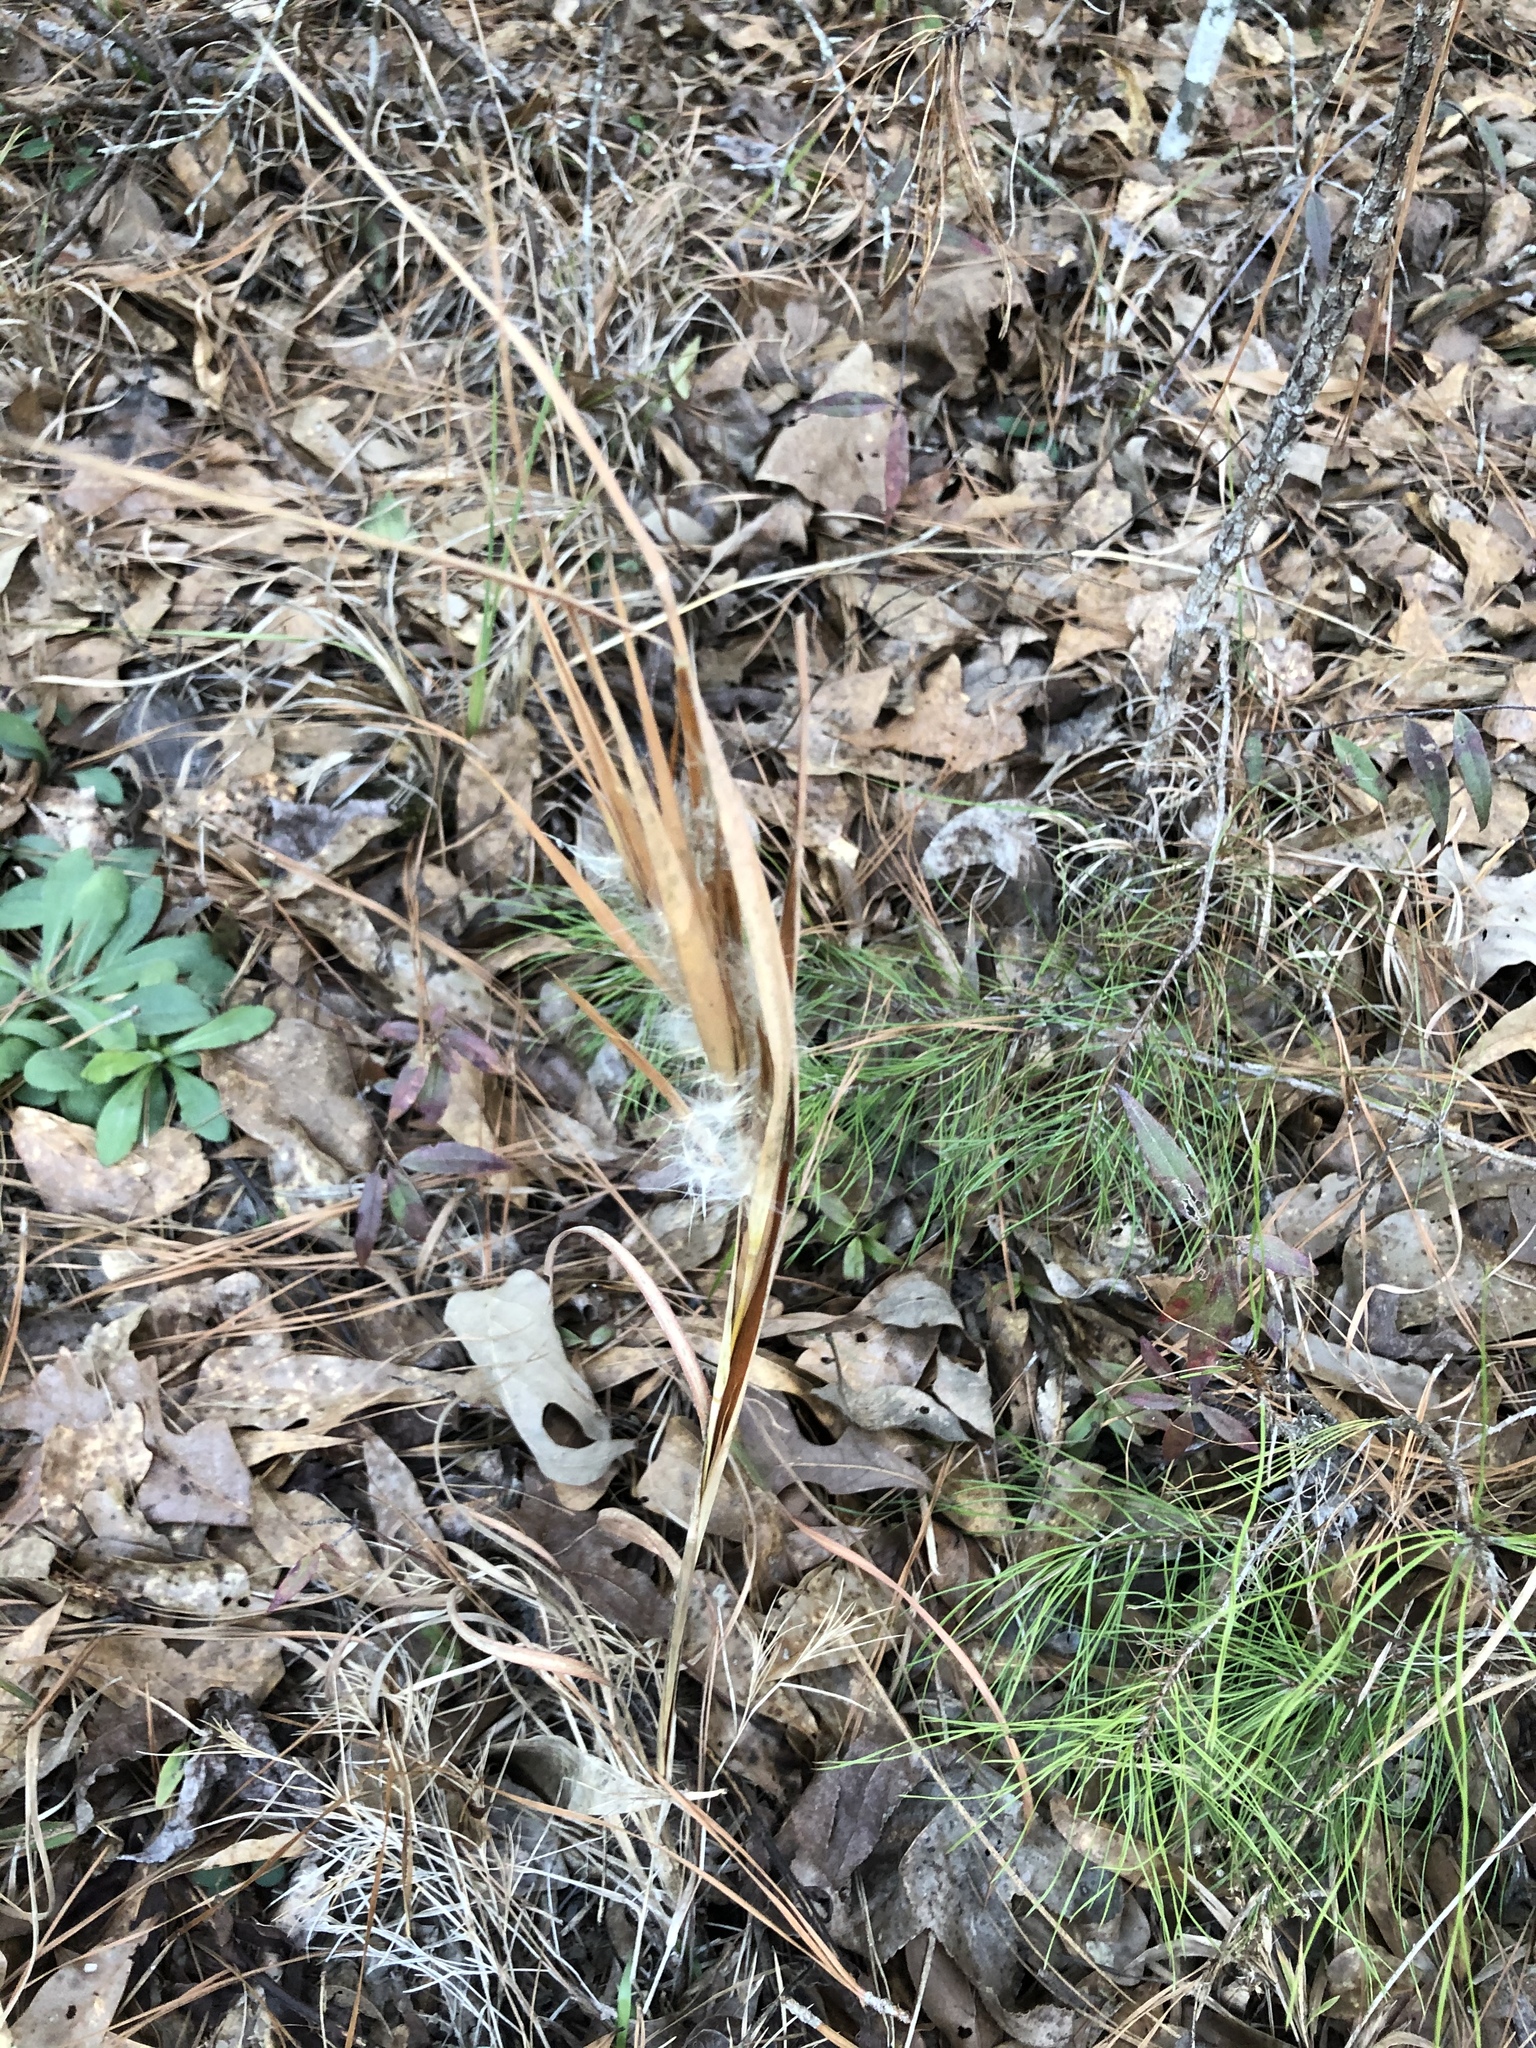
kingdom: Plantae
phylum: Tracheophyta
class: Liliopsida
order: Poales
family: Poaceae
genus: Andropogon
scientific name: Andropogon gyrans
